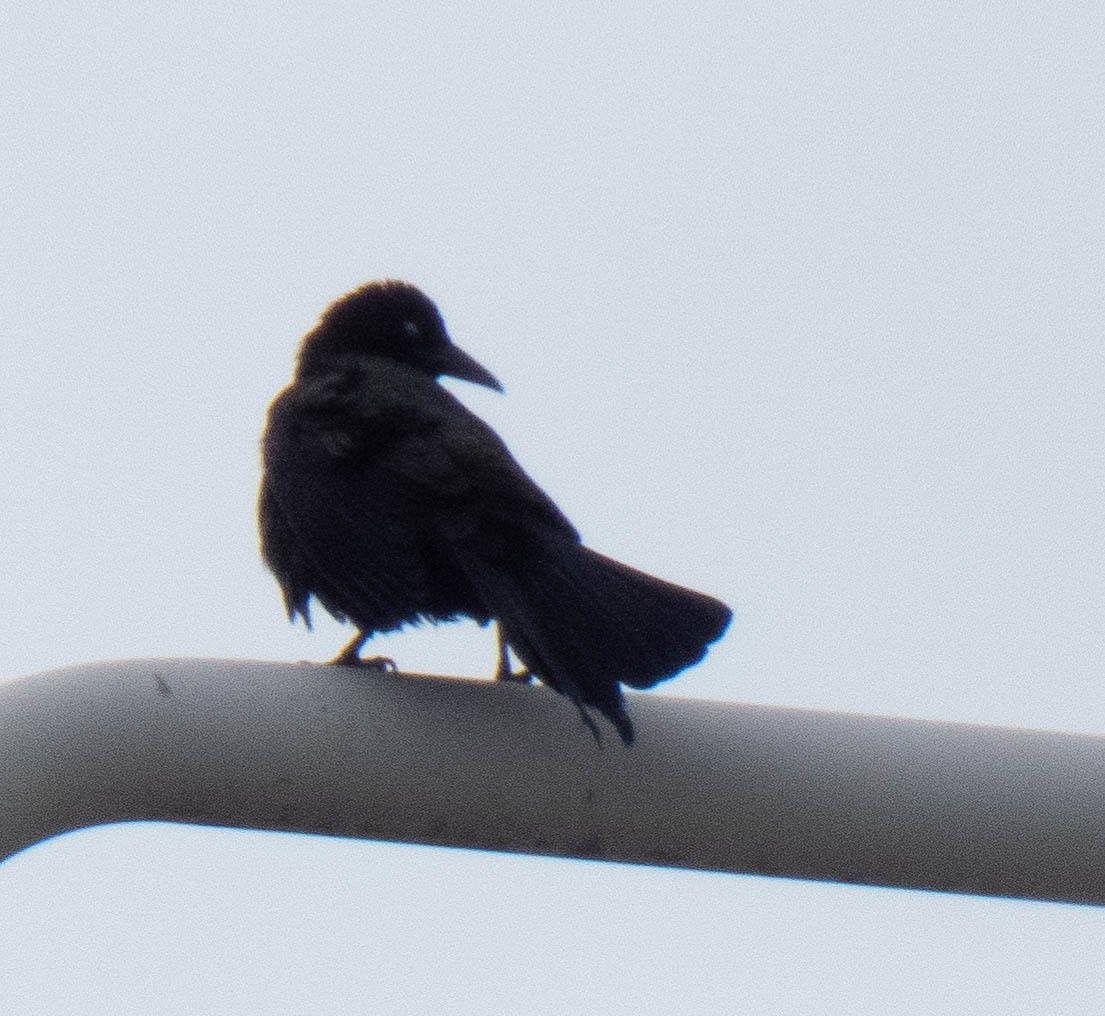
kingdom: Animalia
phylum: Chordata
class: Aves
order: Passeriformes
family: Icteridae
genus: Quiscalus
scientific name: Quiscalus quiscula
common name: Common grackle
